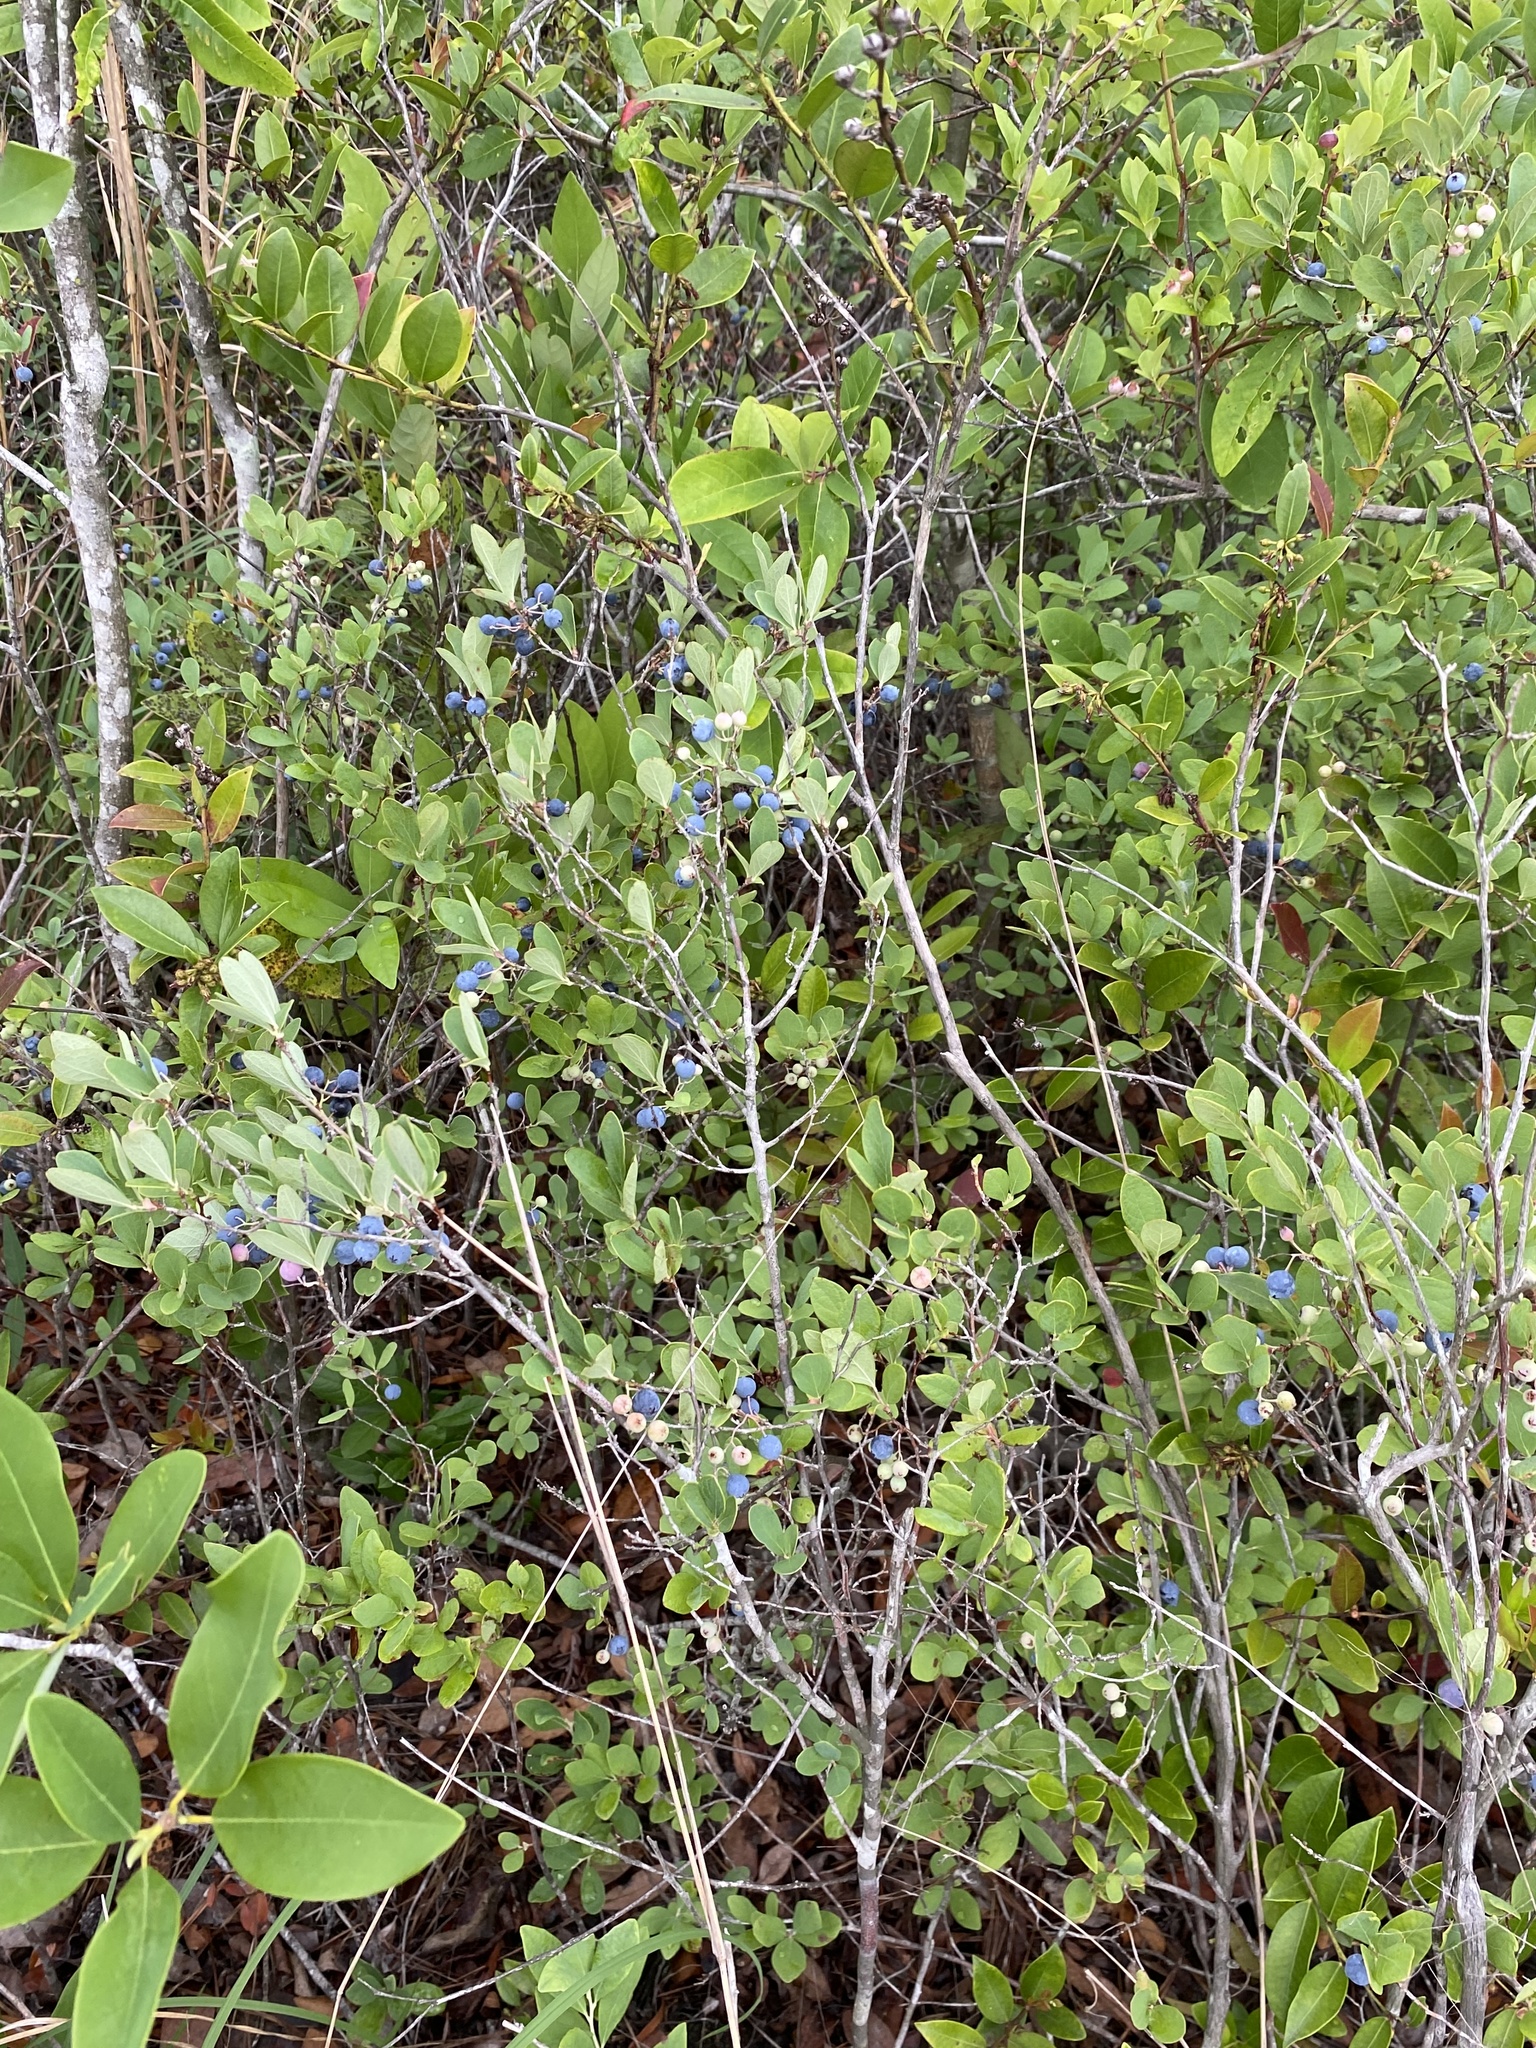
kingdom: Plantae
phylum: Tracheophyta
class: Magnoliopsida
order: Ericales
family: Ericaceae
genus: Gaylussacia
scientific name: Gaylussacia frondosa
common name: Dangleberry
